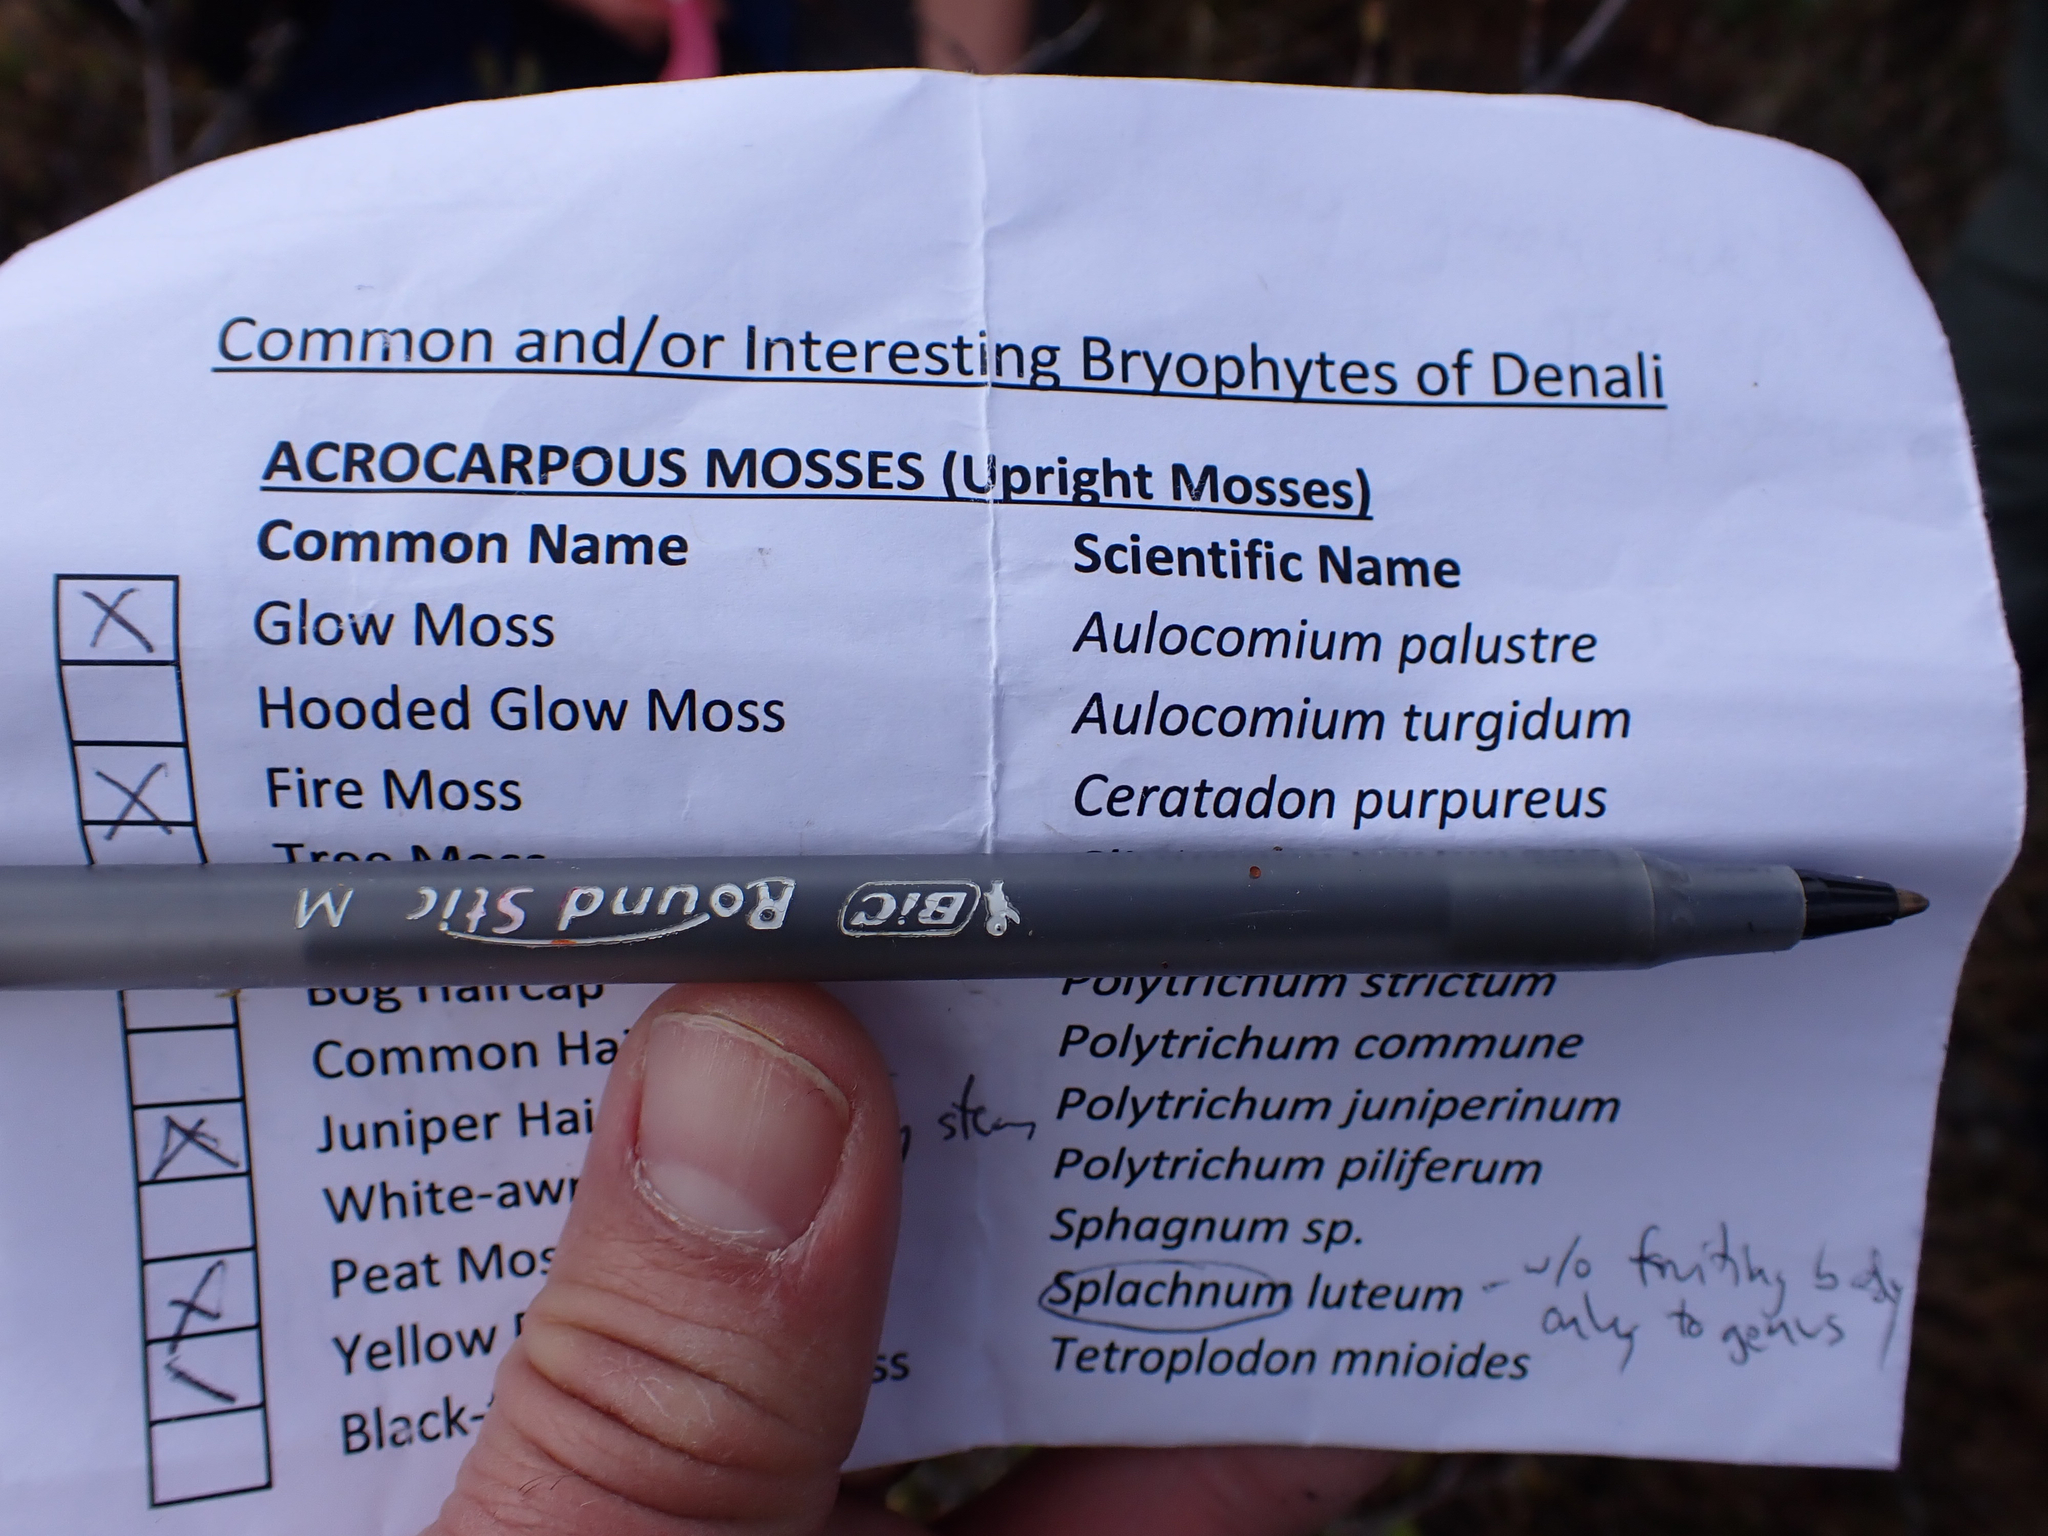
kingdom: Plantae
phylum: Bryophyta
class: Bryopsida
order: Dicranales
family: Ditrichaceae
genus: Ceratodon
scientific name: Ceratodon purpureus
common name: Redshank
